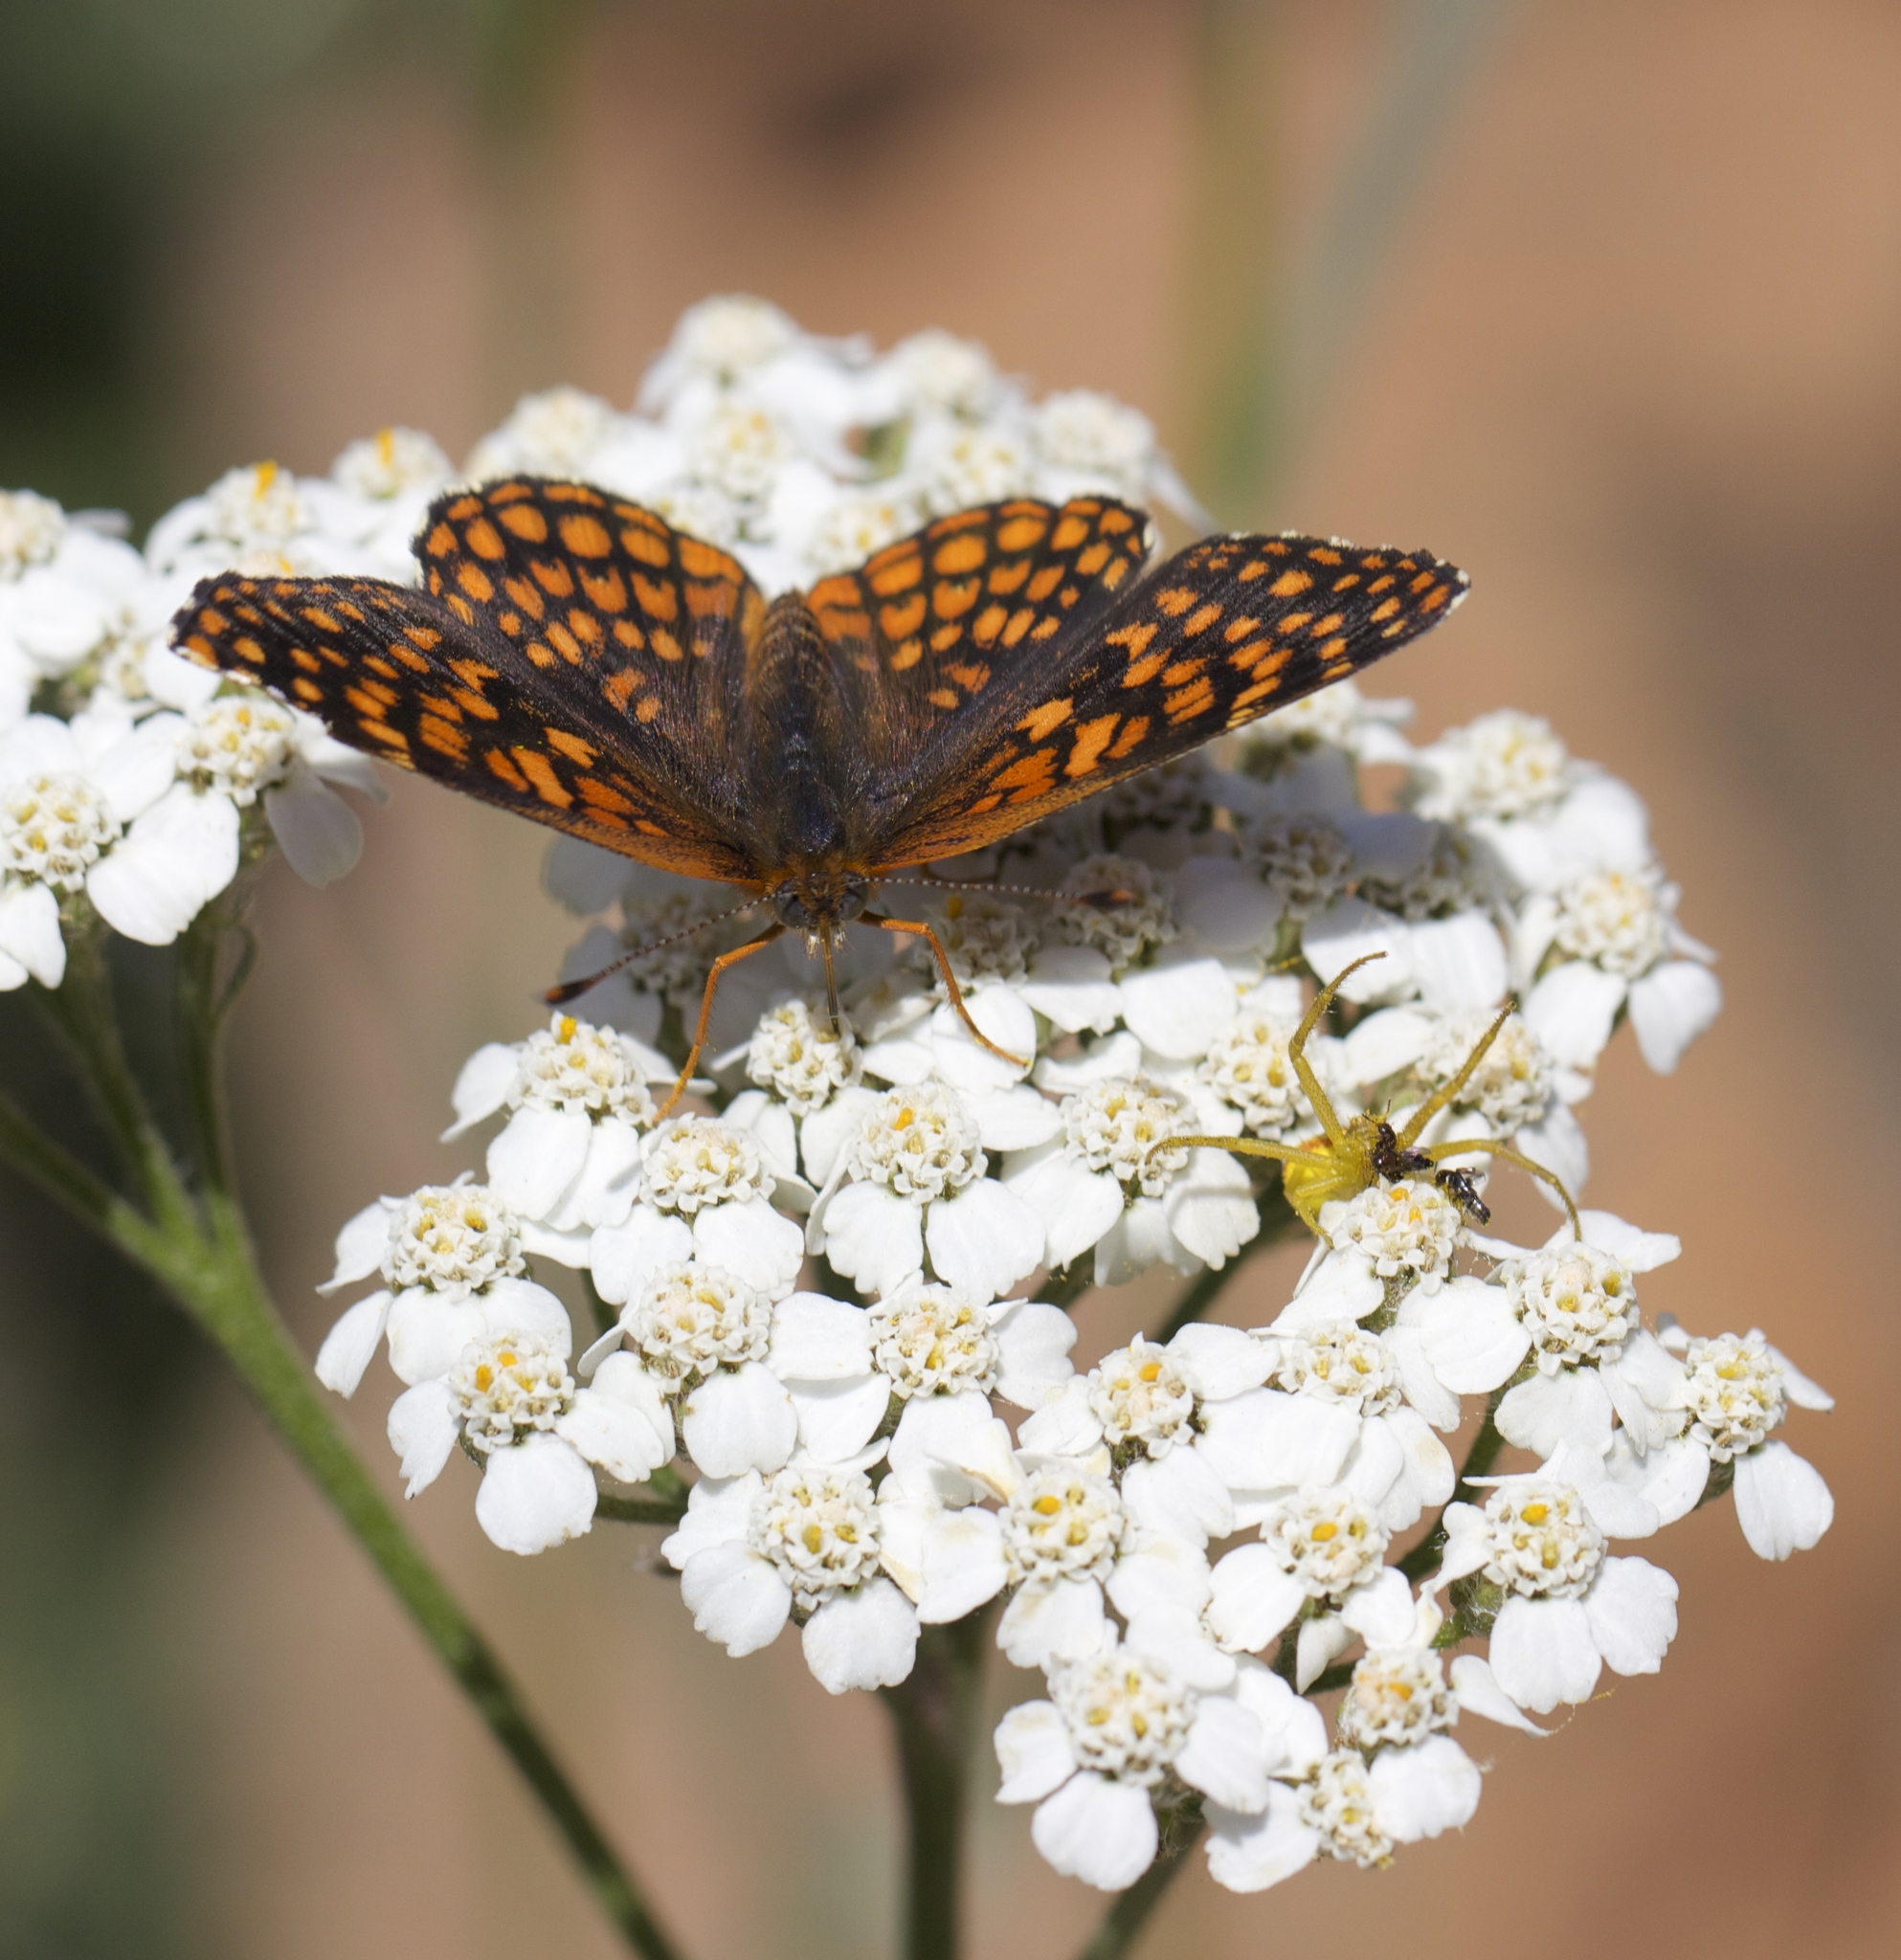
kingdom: Animalia
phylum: Arthropoda
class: Insecta
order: Lepidoptera
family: Nymphalidae
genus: Chlosyne
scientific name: Chlosyne palla
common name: Northern checkerspot
